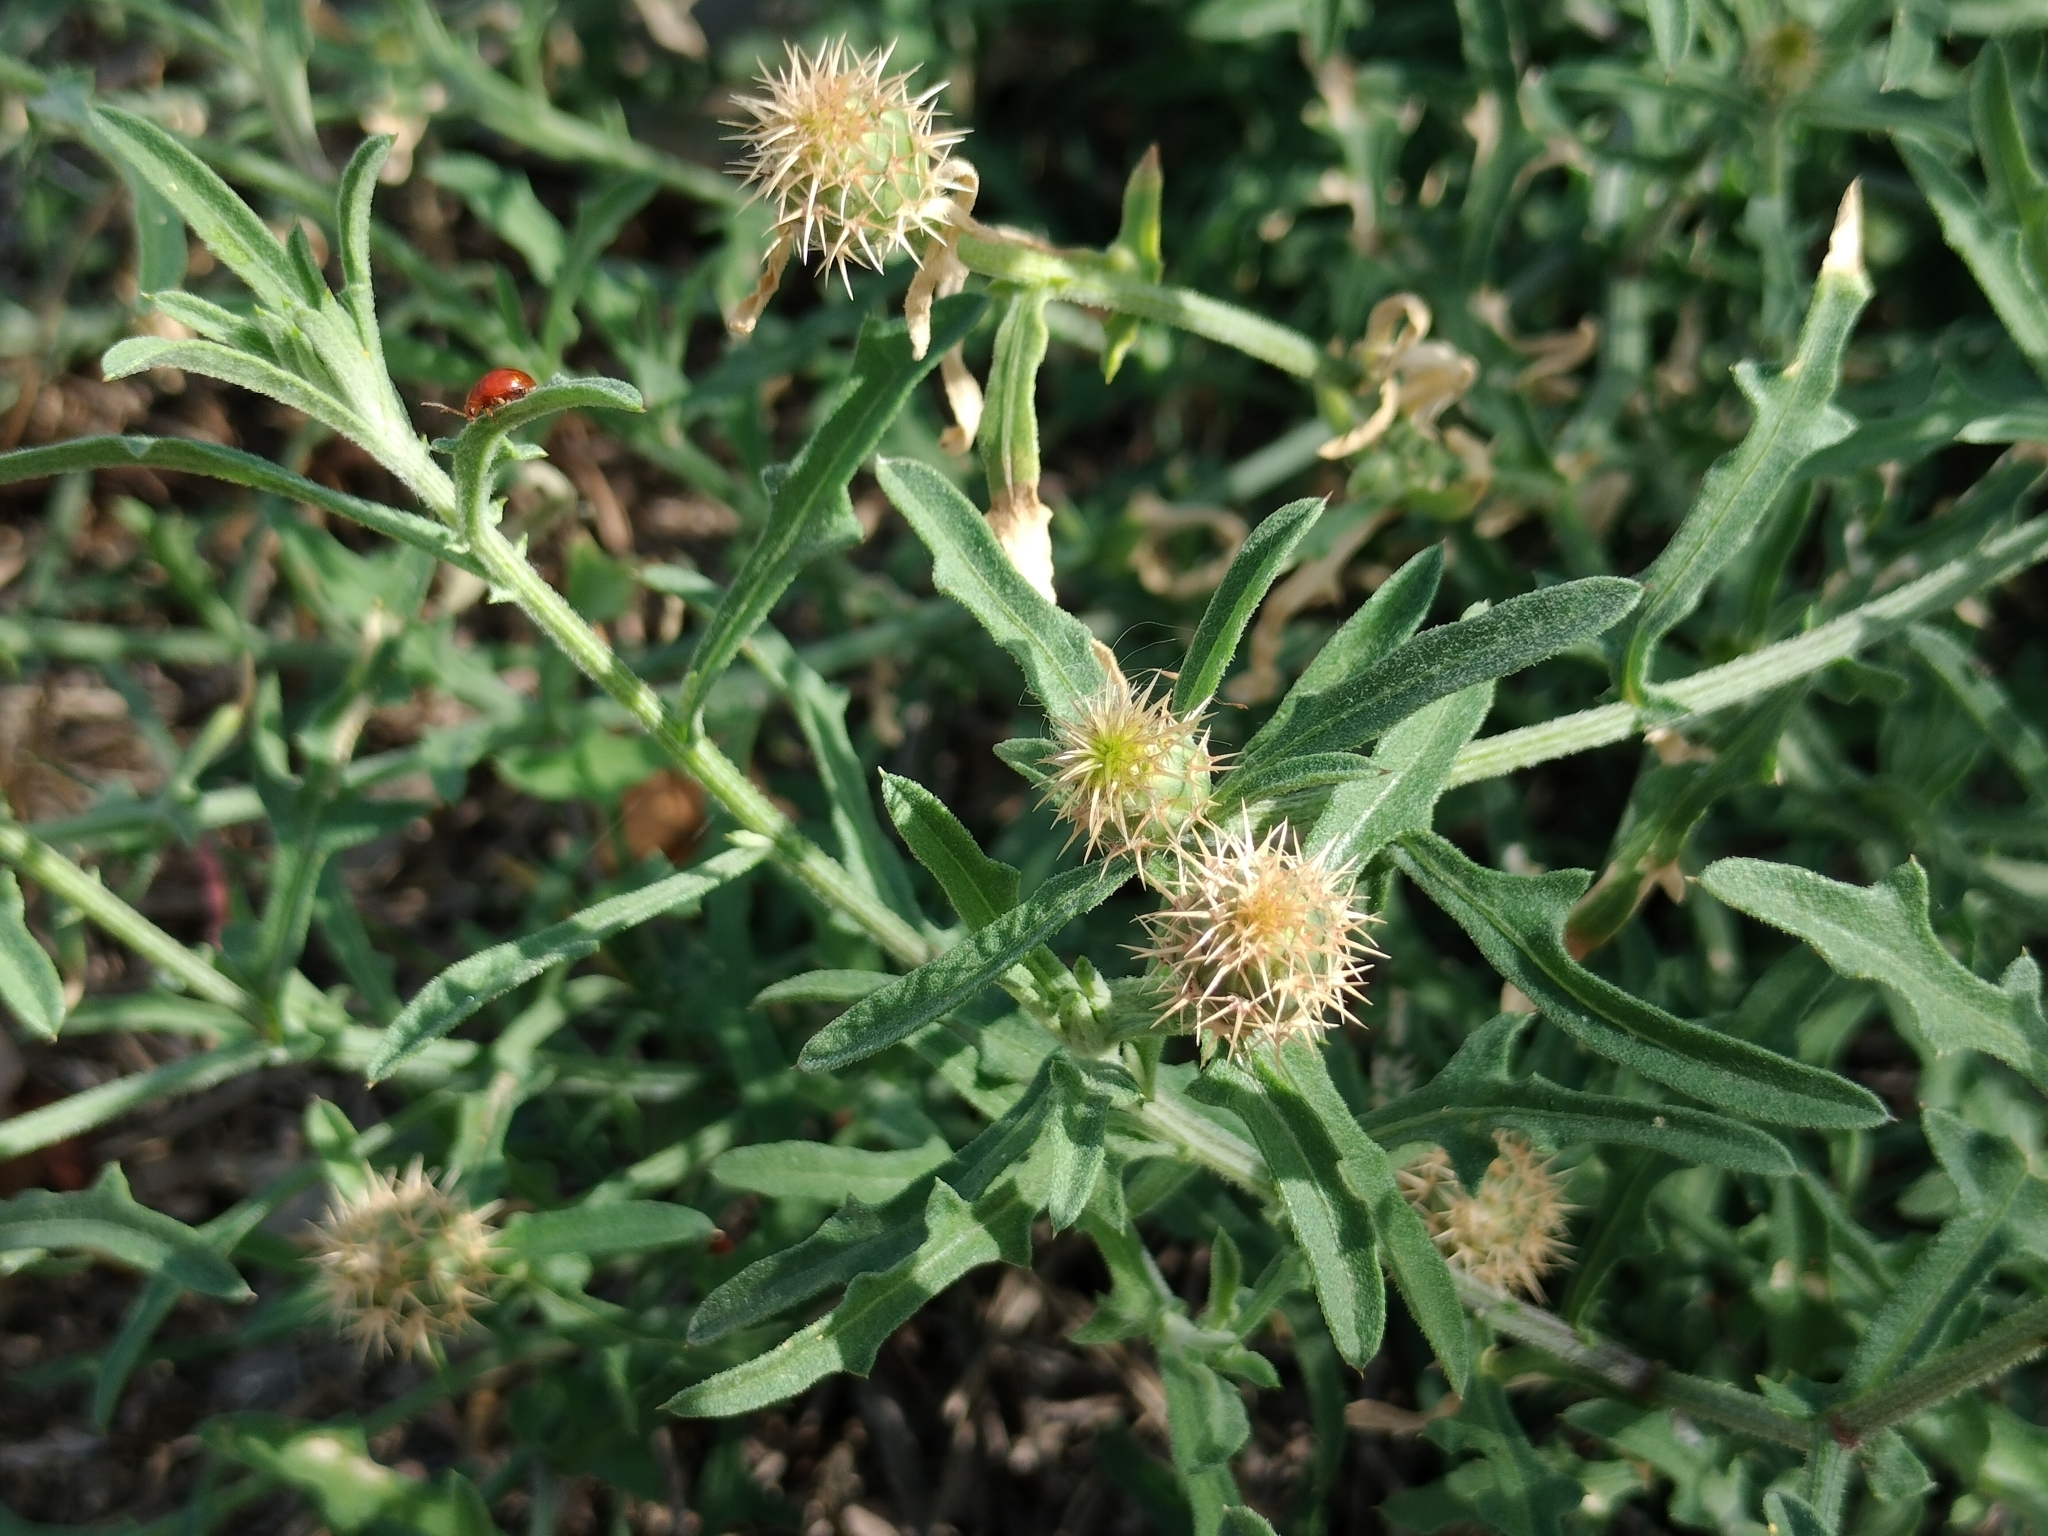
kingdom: Plantae
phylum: Tracheophyta
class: Magnoliopsida
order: Asterales
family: Asteraceae
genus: Centaurea
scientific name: Centaurea aspera
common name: Rough star-thistle
